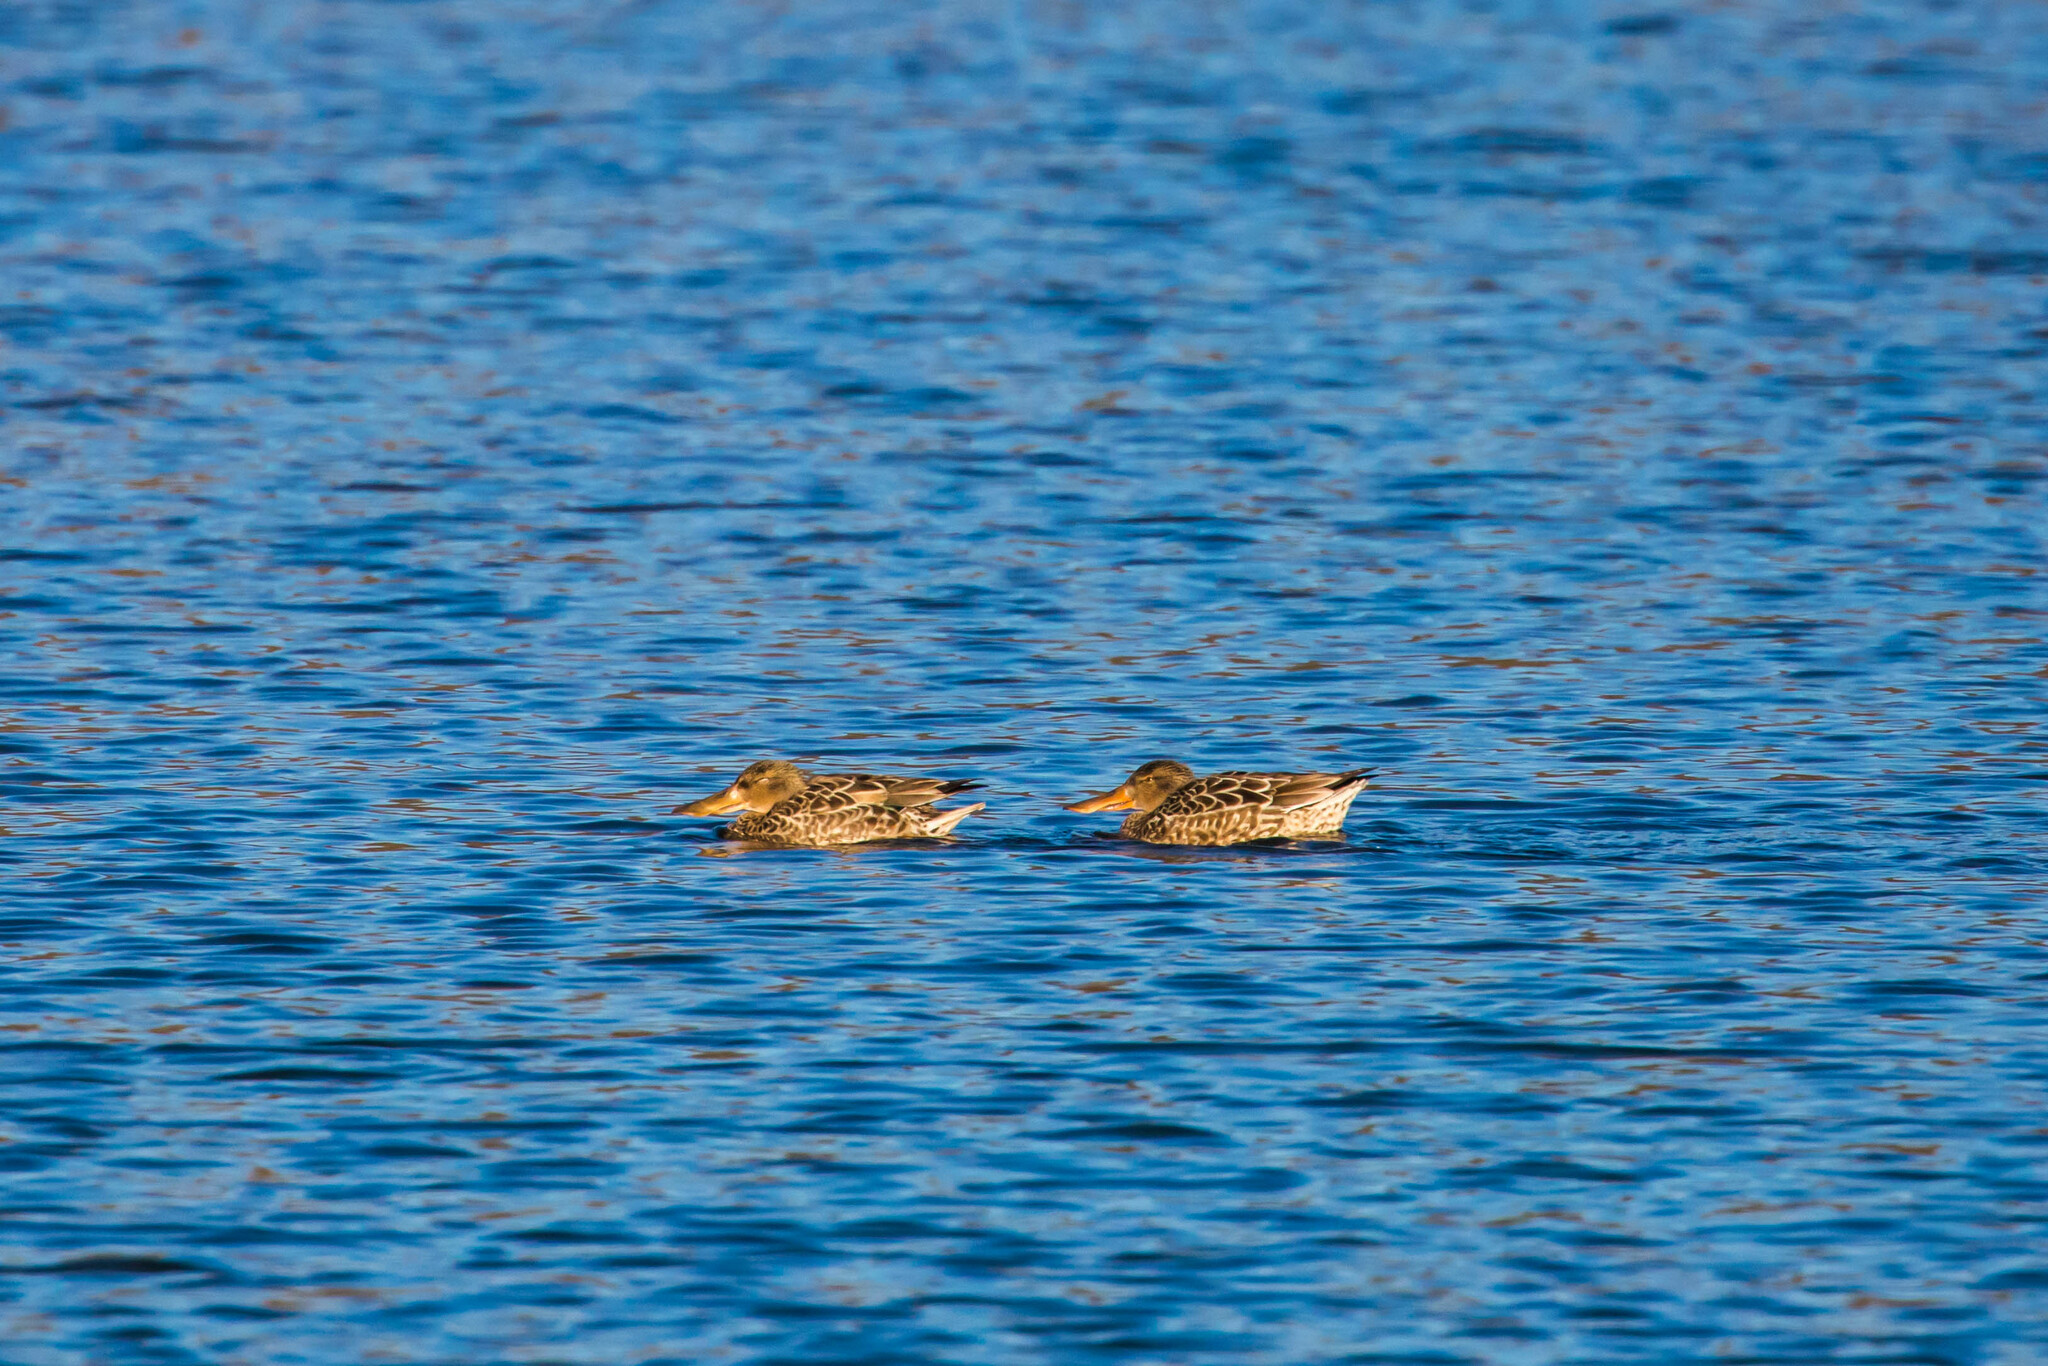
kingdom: Animalia
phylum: Chordata
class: Aves
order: Anseriformes
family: Anatidae
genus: Spatula
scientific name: Spatula clypeata
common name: Northern shoveler
